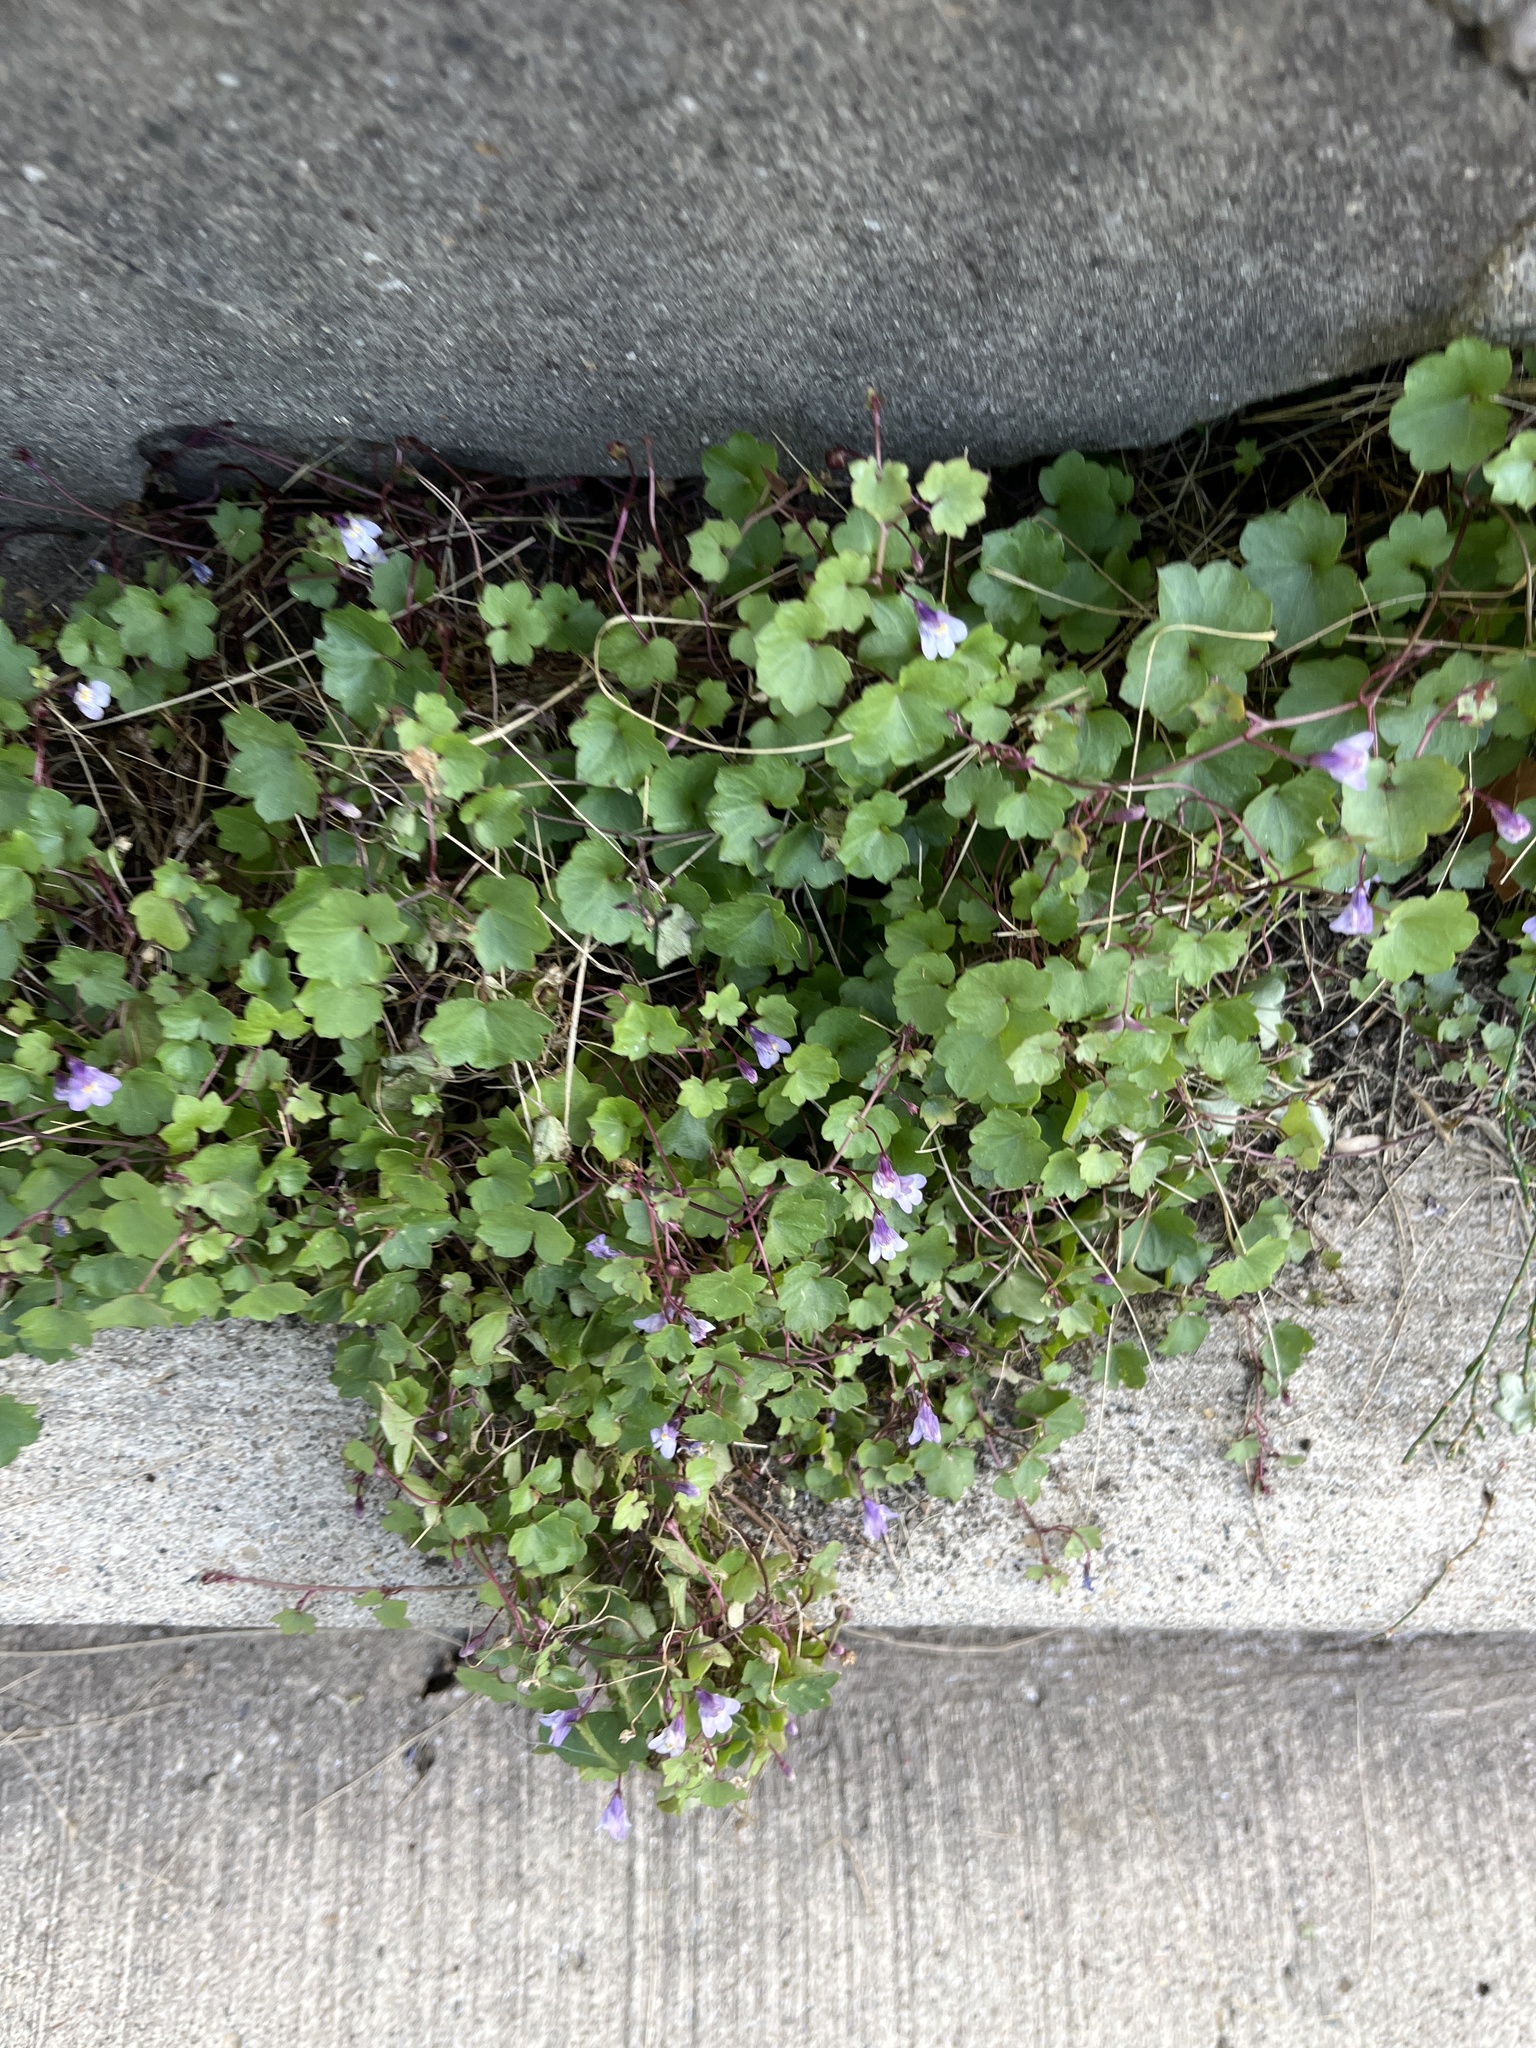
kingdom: Plantae
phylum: Tracheophyta
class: Magnoliopsida
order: Lamiales
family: Plantaginaceae
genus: Cymbalaria
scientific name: Cymbalaria muralis
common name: Ivy-leaved toadflax
